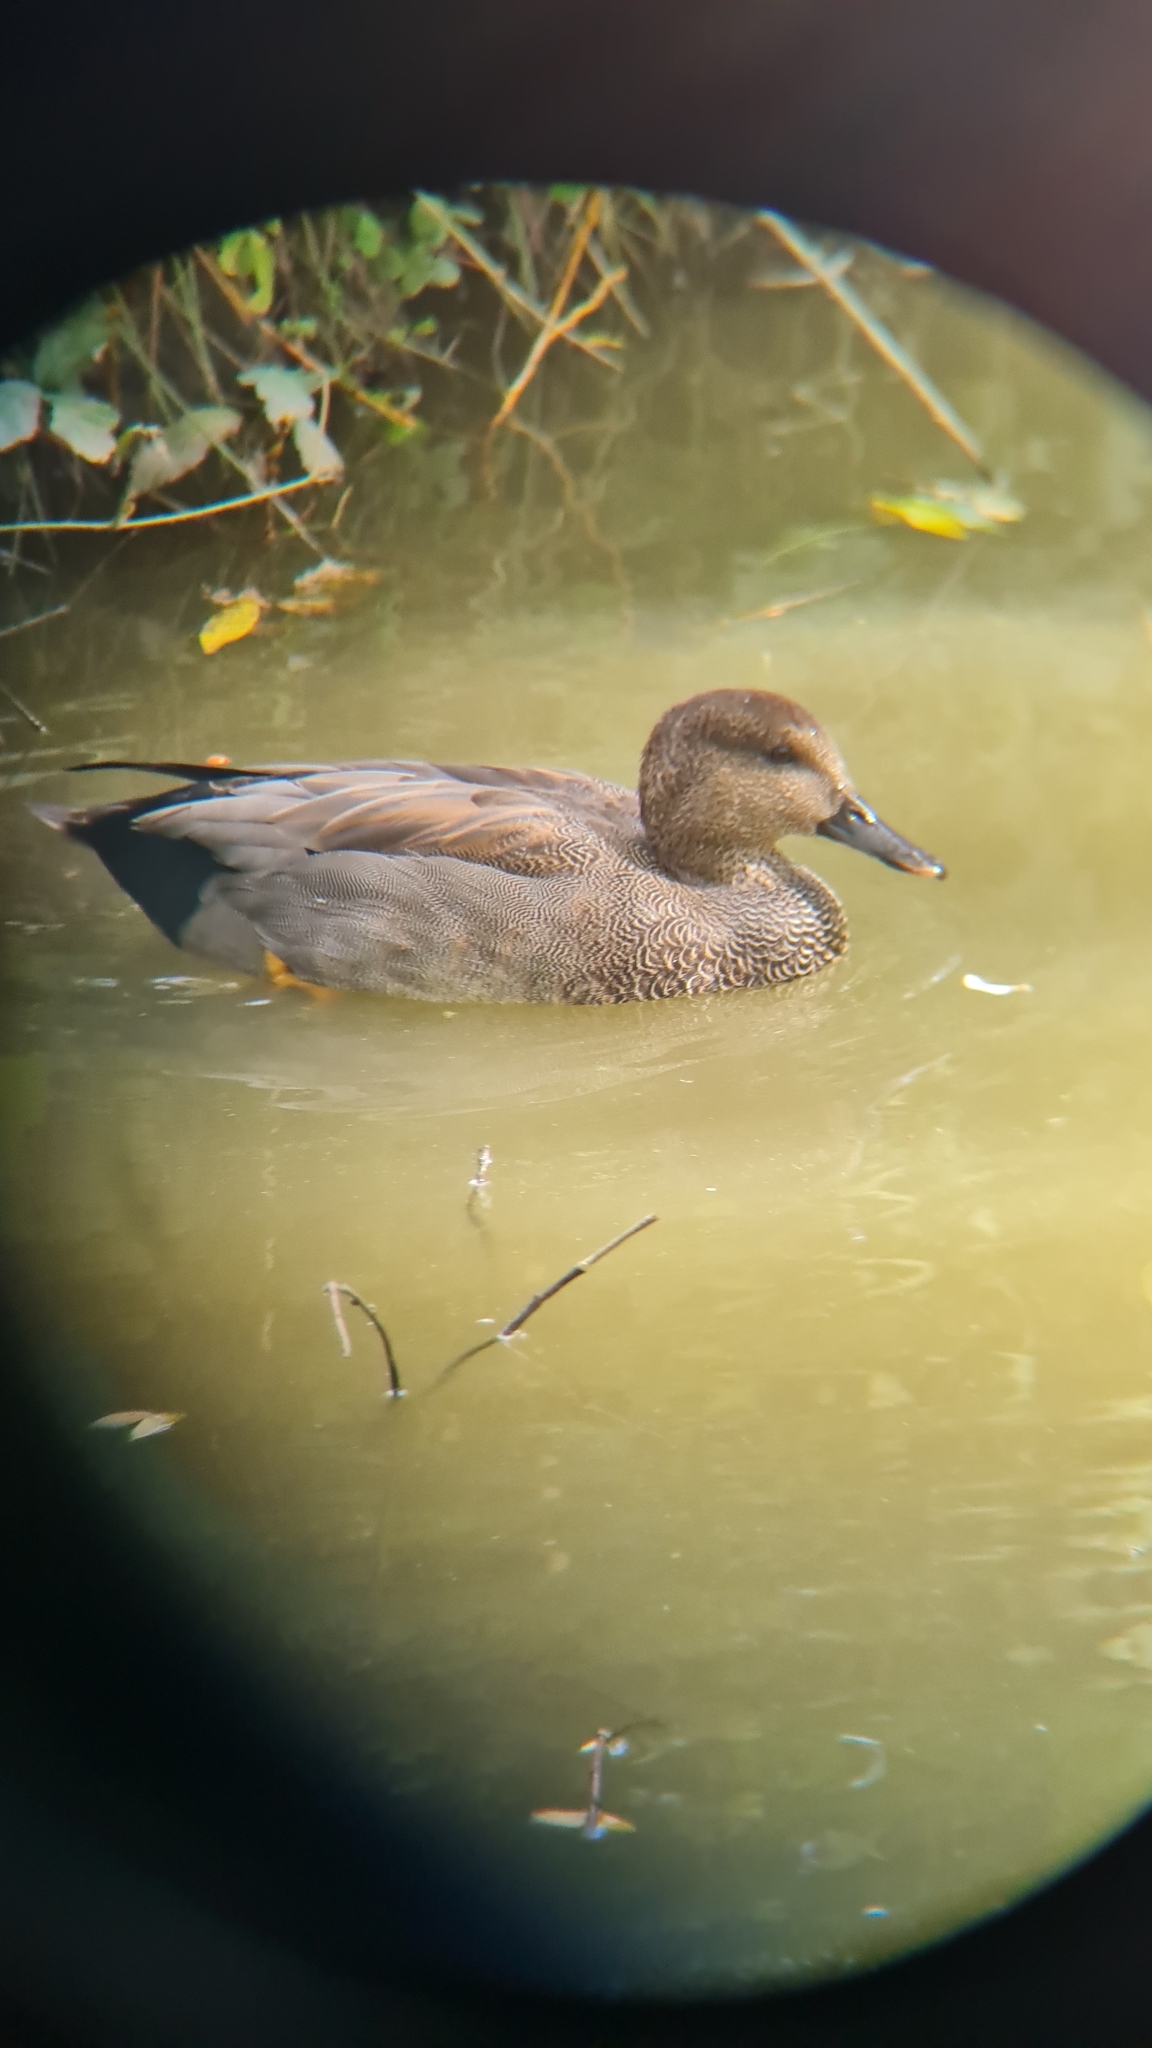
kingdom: Animalia
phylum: Chordata
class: Aves
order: Anseriformes
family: Anatidae
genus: Mareca
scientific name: Mareca strepera
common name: Gadwall
